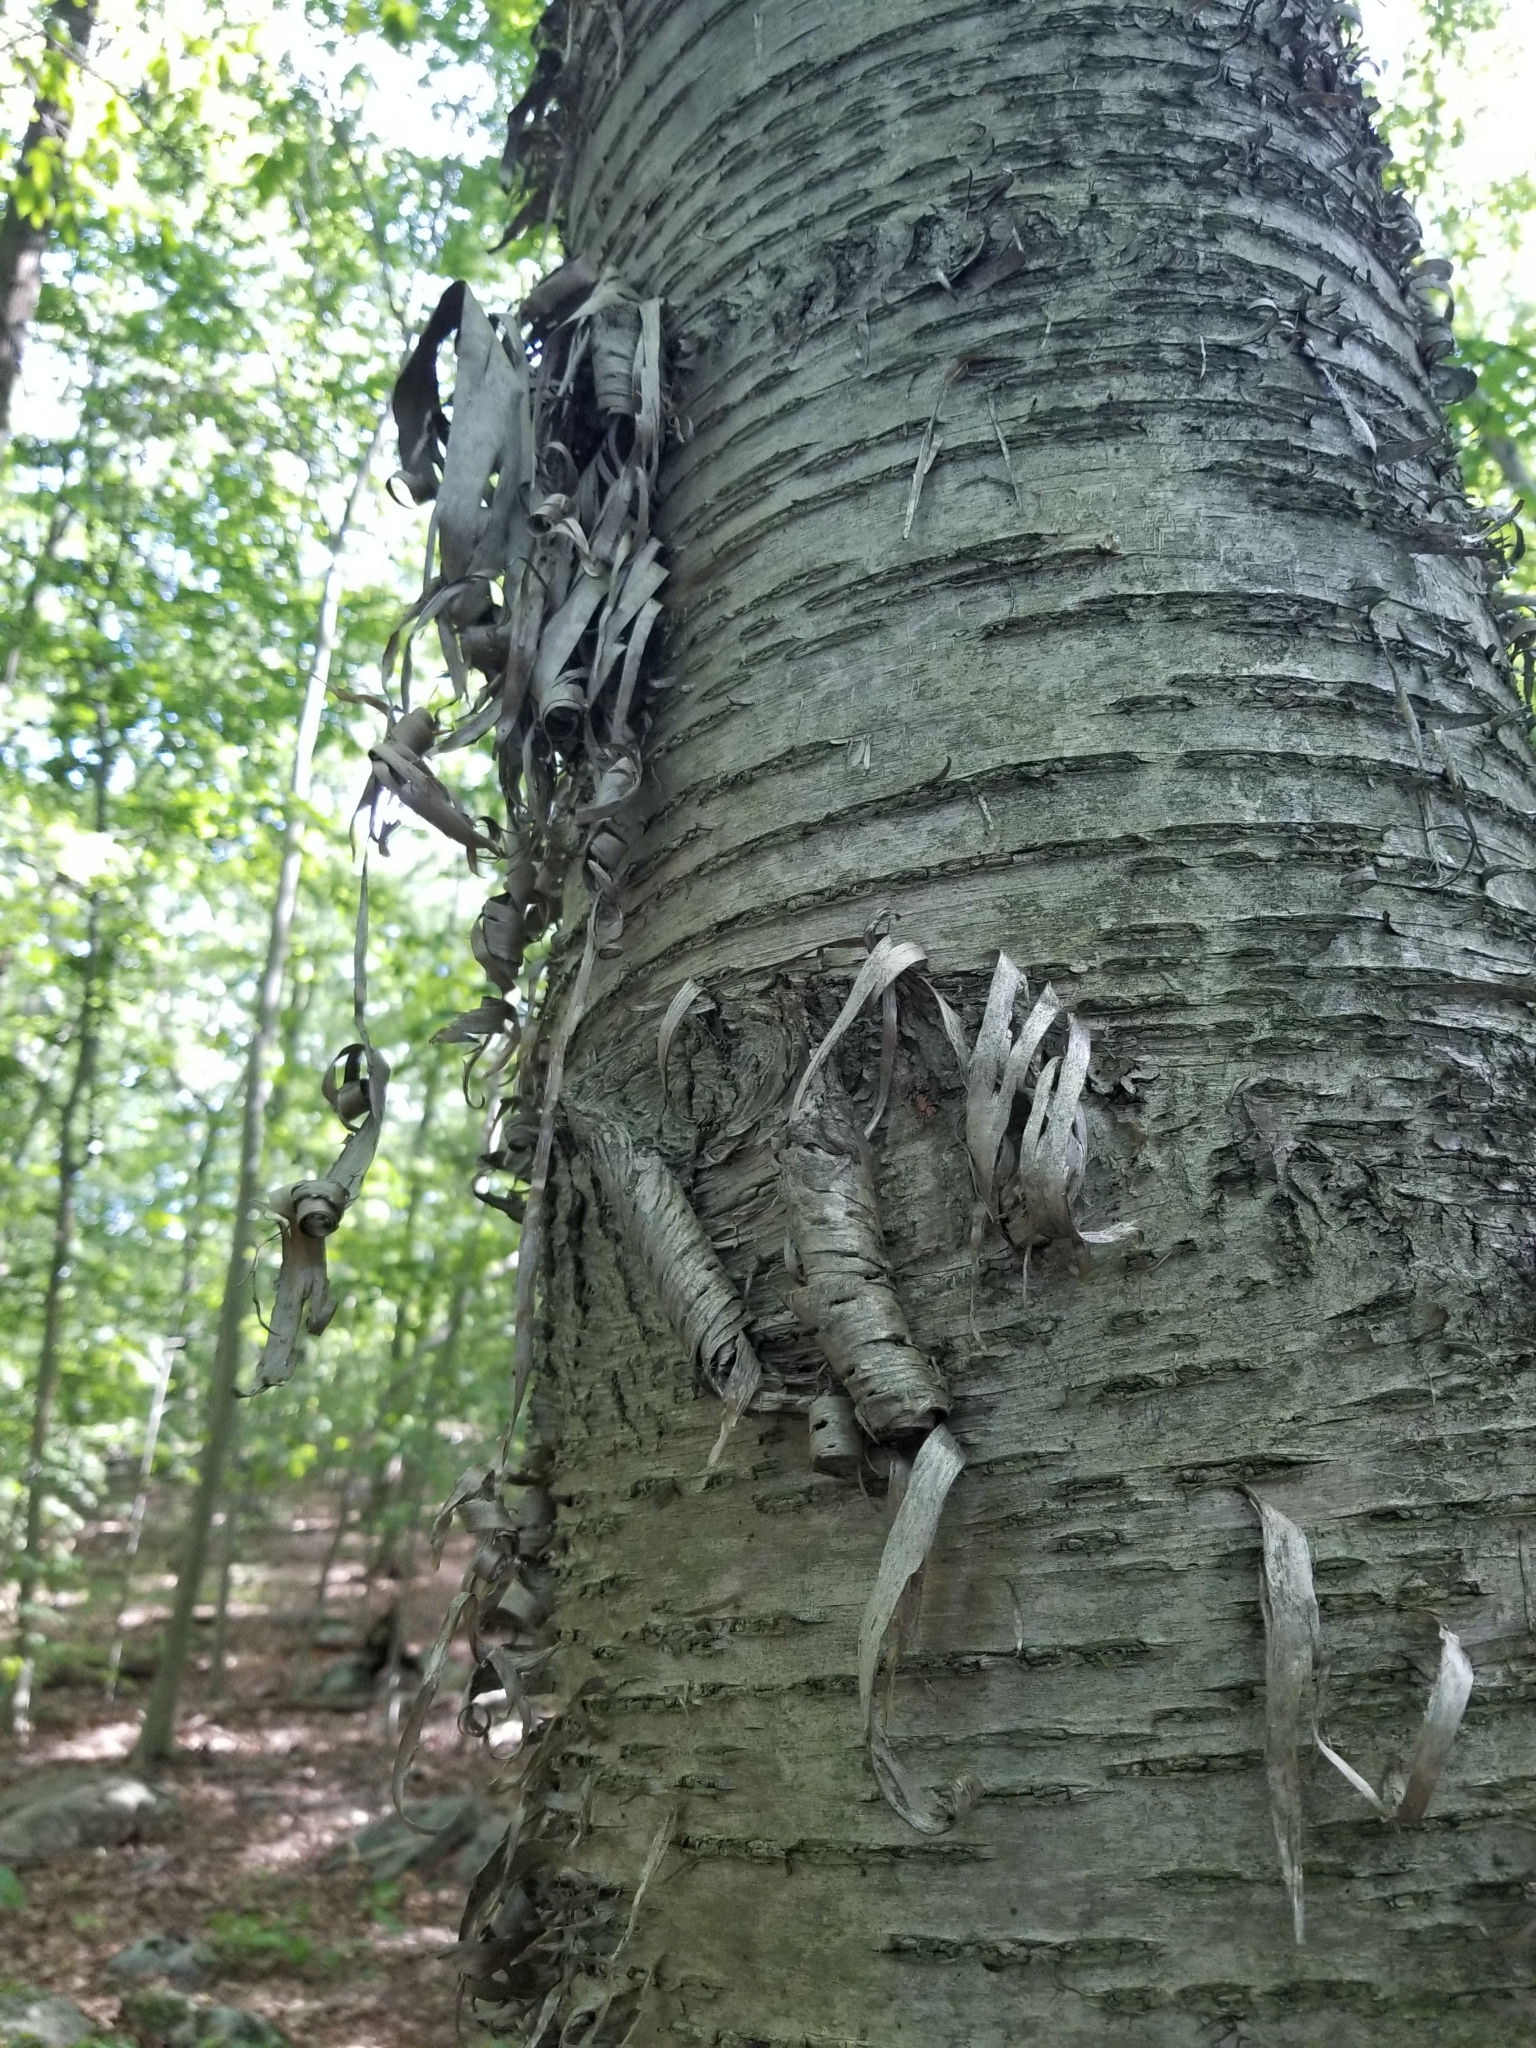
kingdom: Plantae
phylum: Tracheophyta
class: Magnoliopsida
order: Fagales
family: Betulaceae
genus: Betula
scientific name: Betula alleghaniensis
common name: Yellow birch
